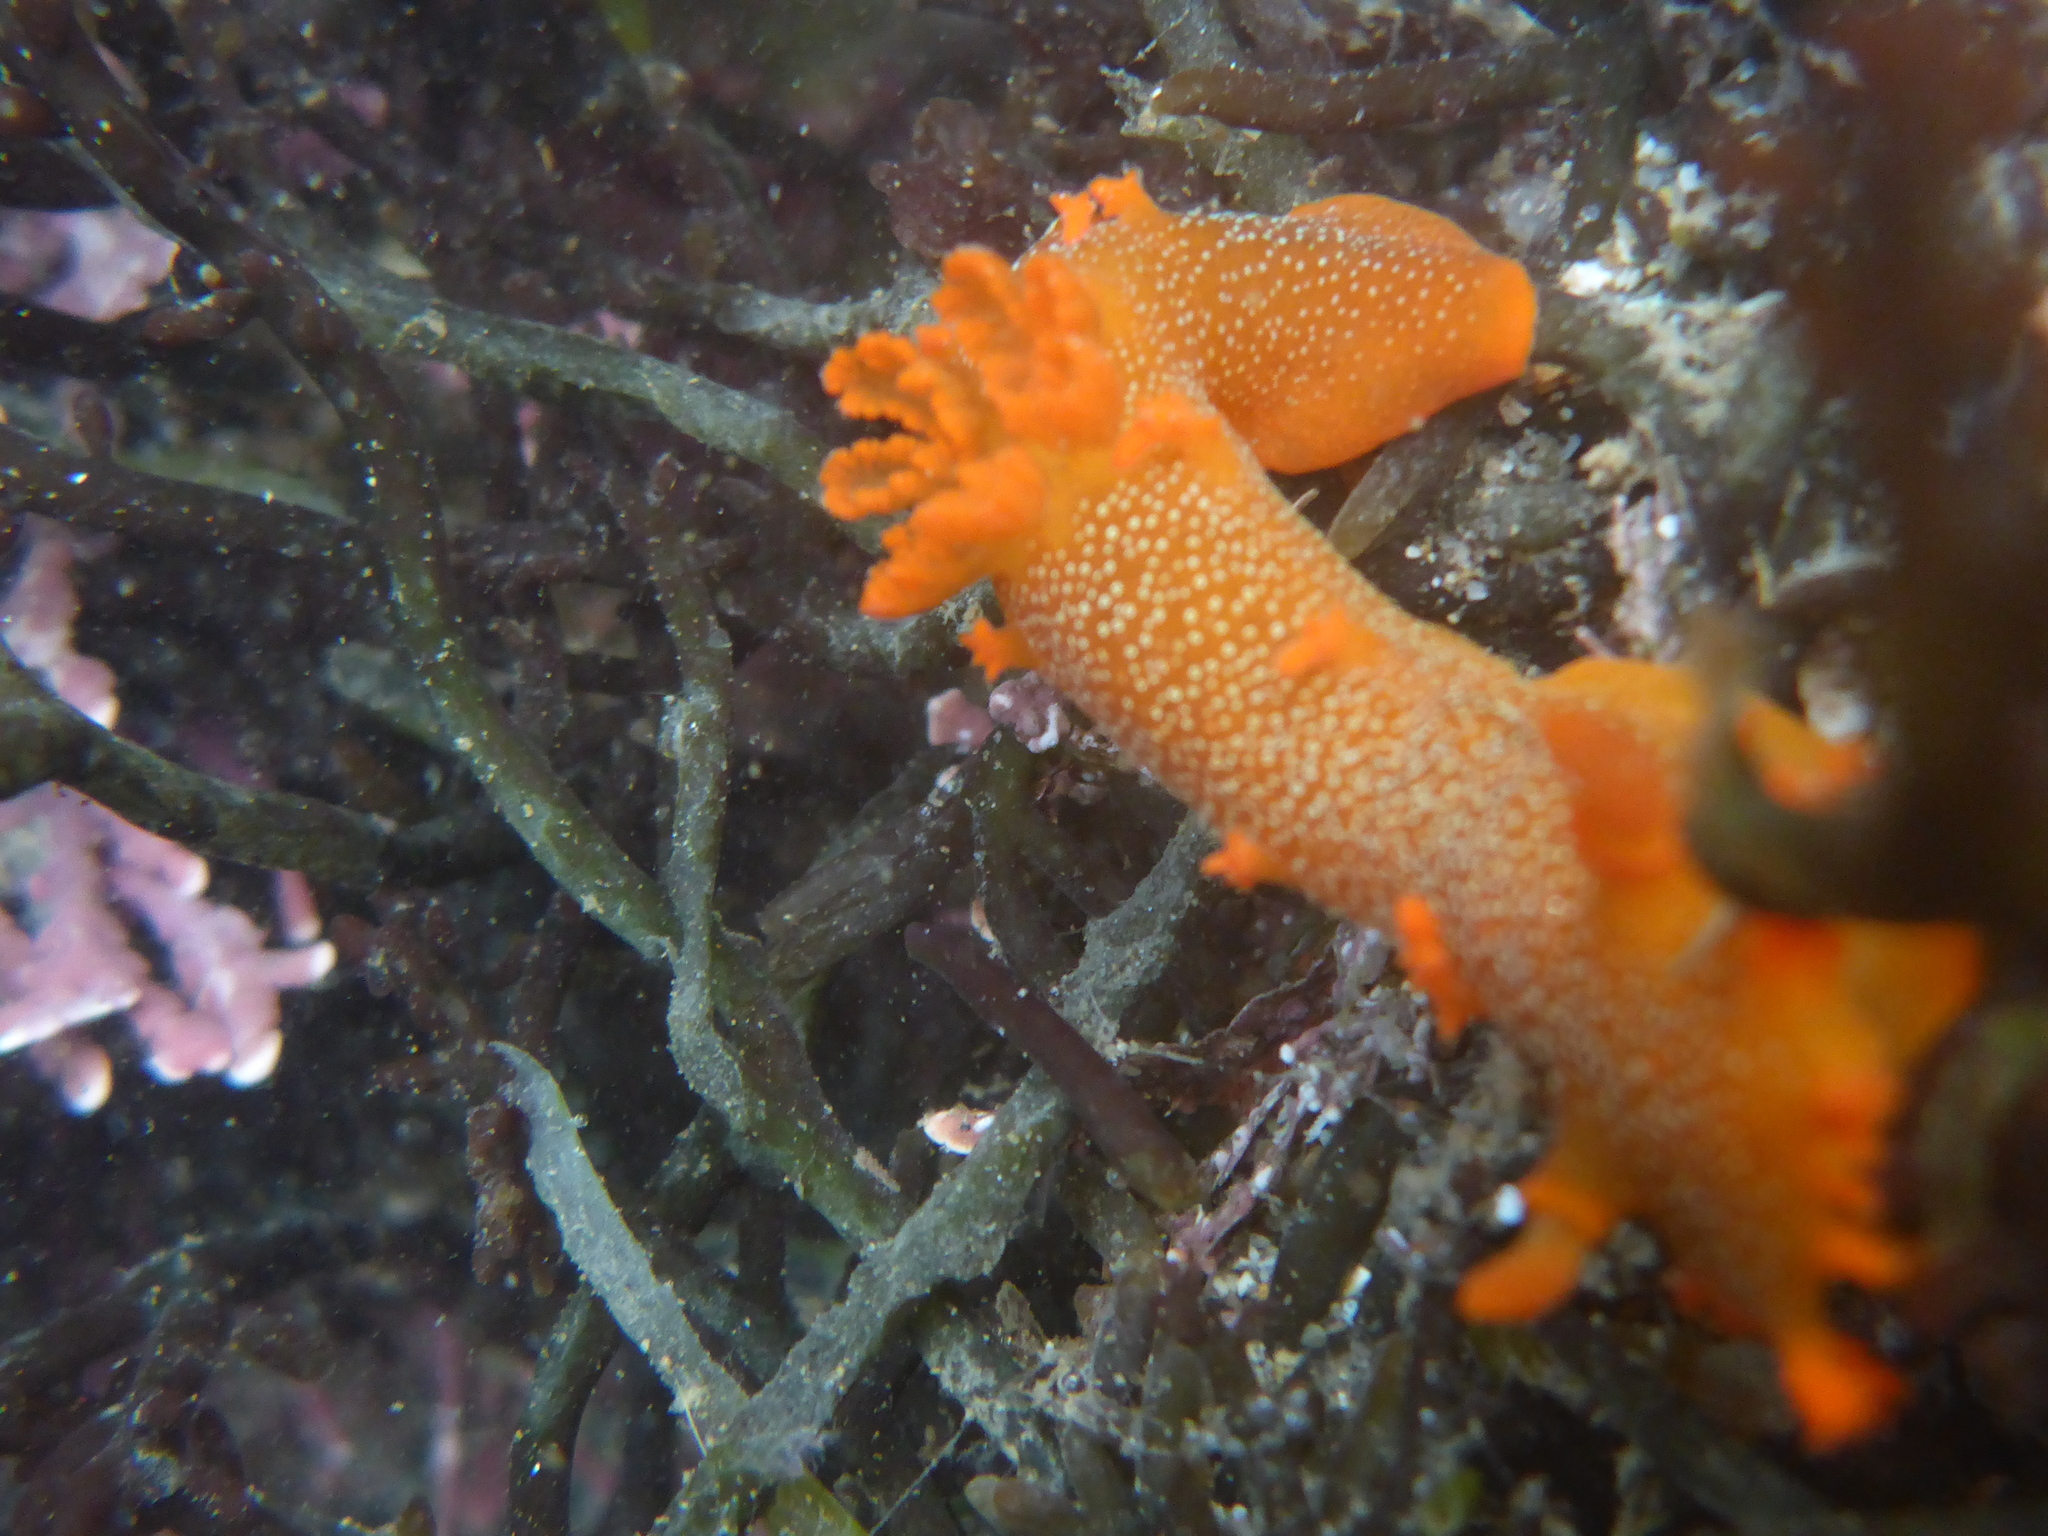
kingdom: Animalia
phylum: Mollusca
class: Gastropoda
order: Nudibranchia
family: Polyceridae
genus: Triopha
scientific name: Triopha maculata
